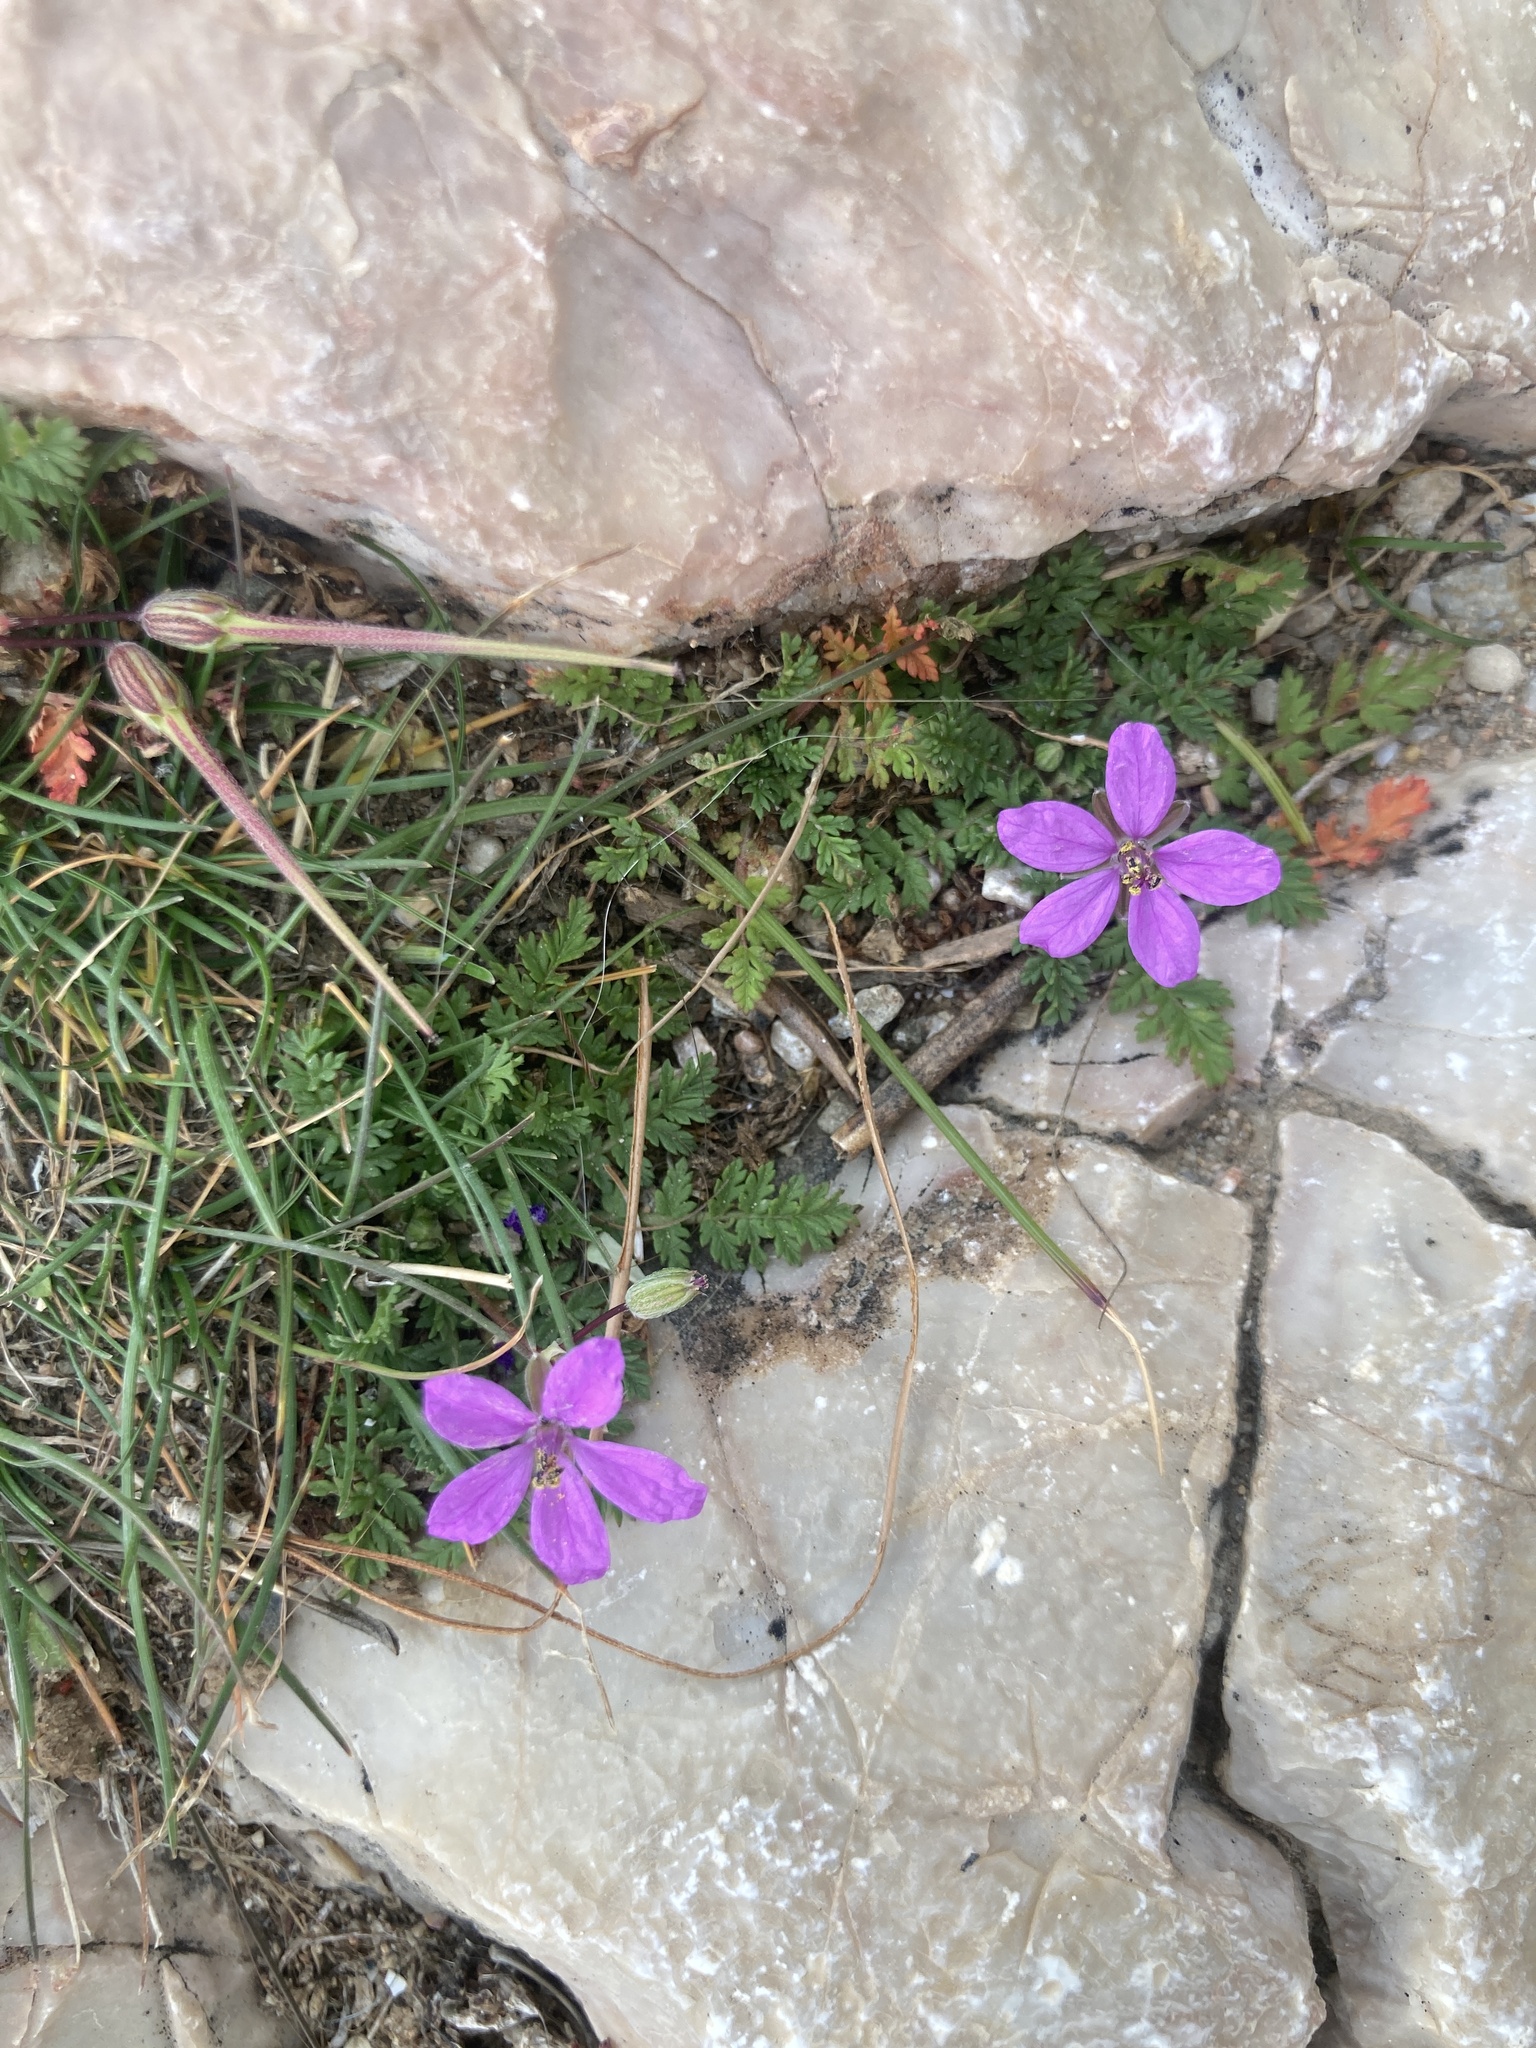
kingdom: Plantae
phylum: Tracheophyta
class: Magnoliopsida
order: Geraniales
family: Geraniaceae
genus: Erodium
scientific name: Erodium cicutarium
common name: Common stork's-bill
